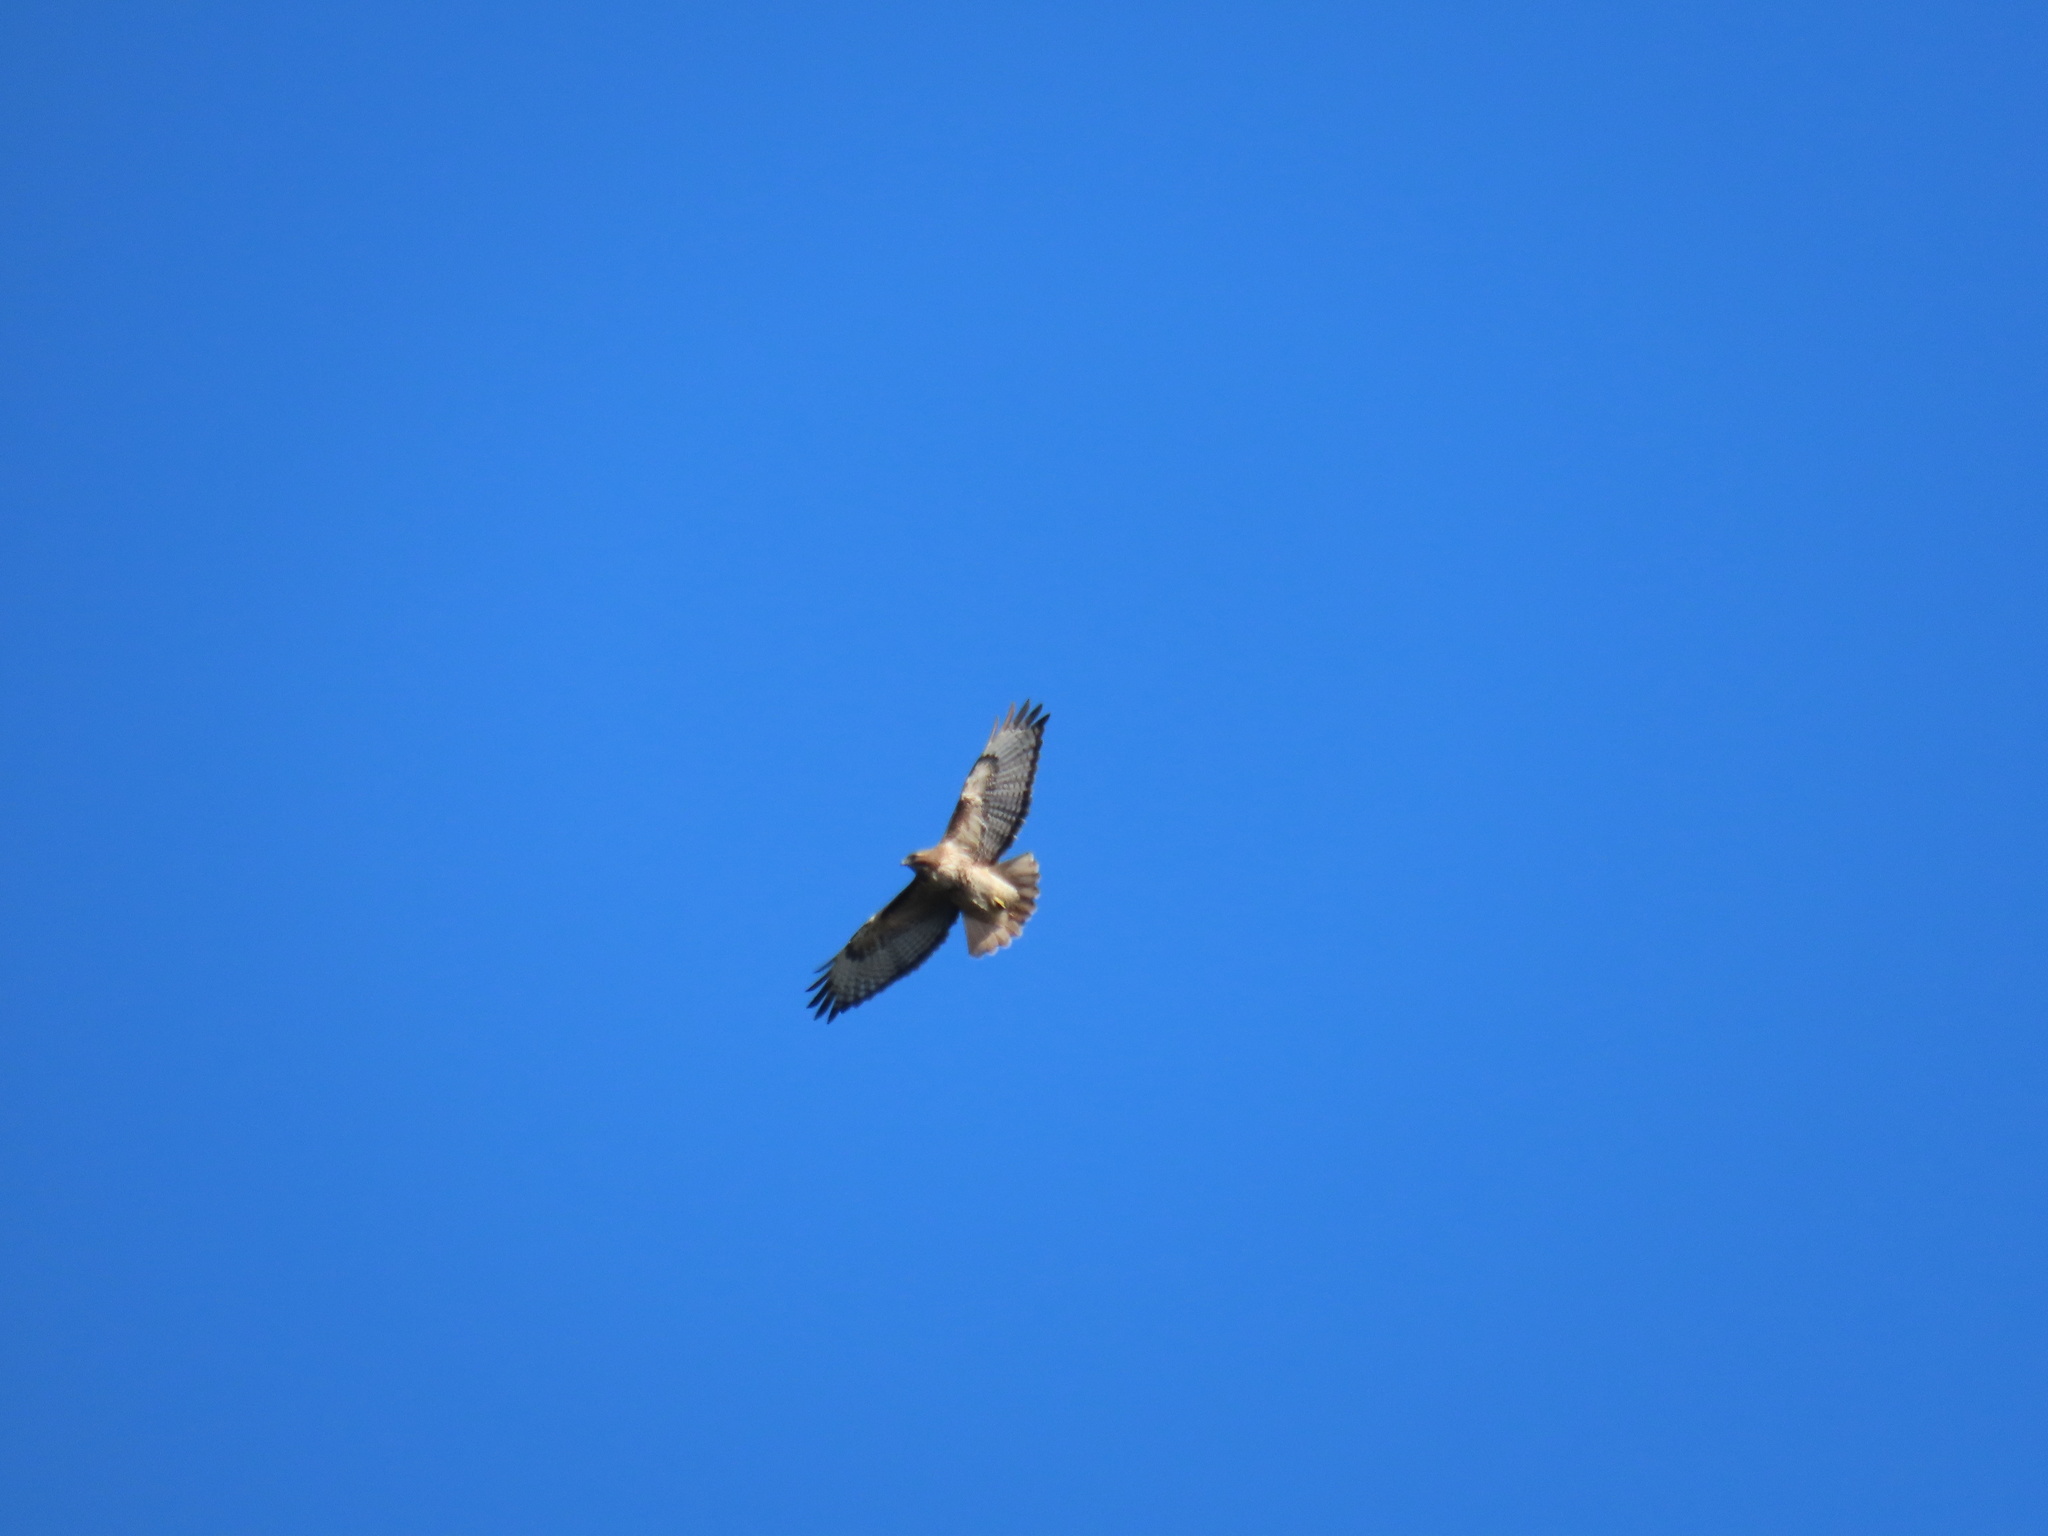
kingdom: Animalia
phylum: Chordata
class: Aves
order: Accipitriformes
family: Accipitridae
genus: Buteo
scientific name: Buteo jamaicensis
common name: Red-tailed hawk
